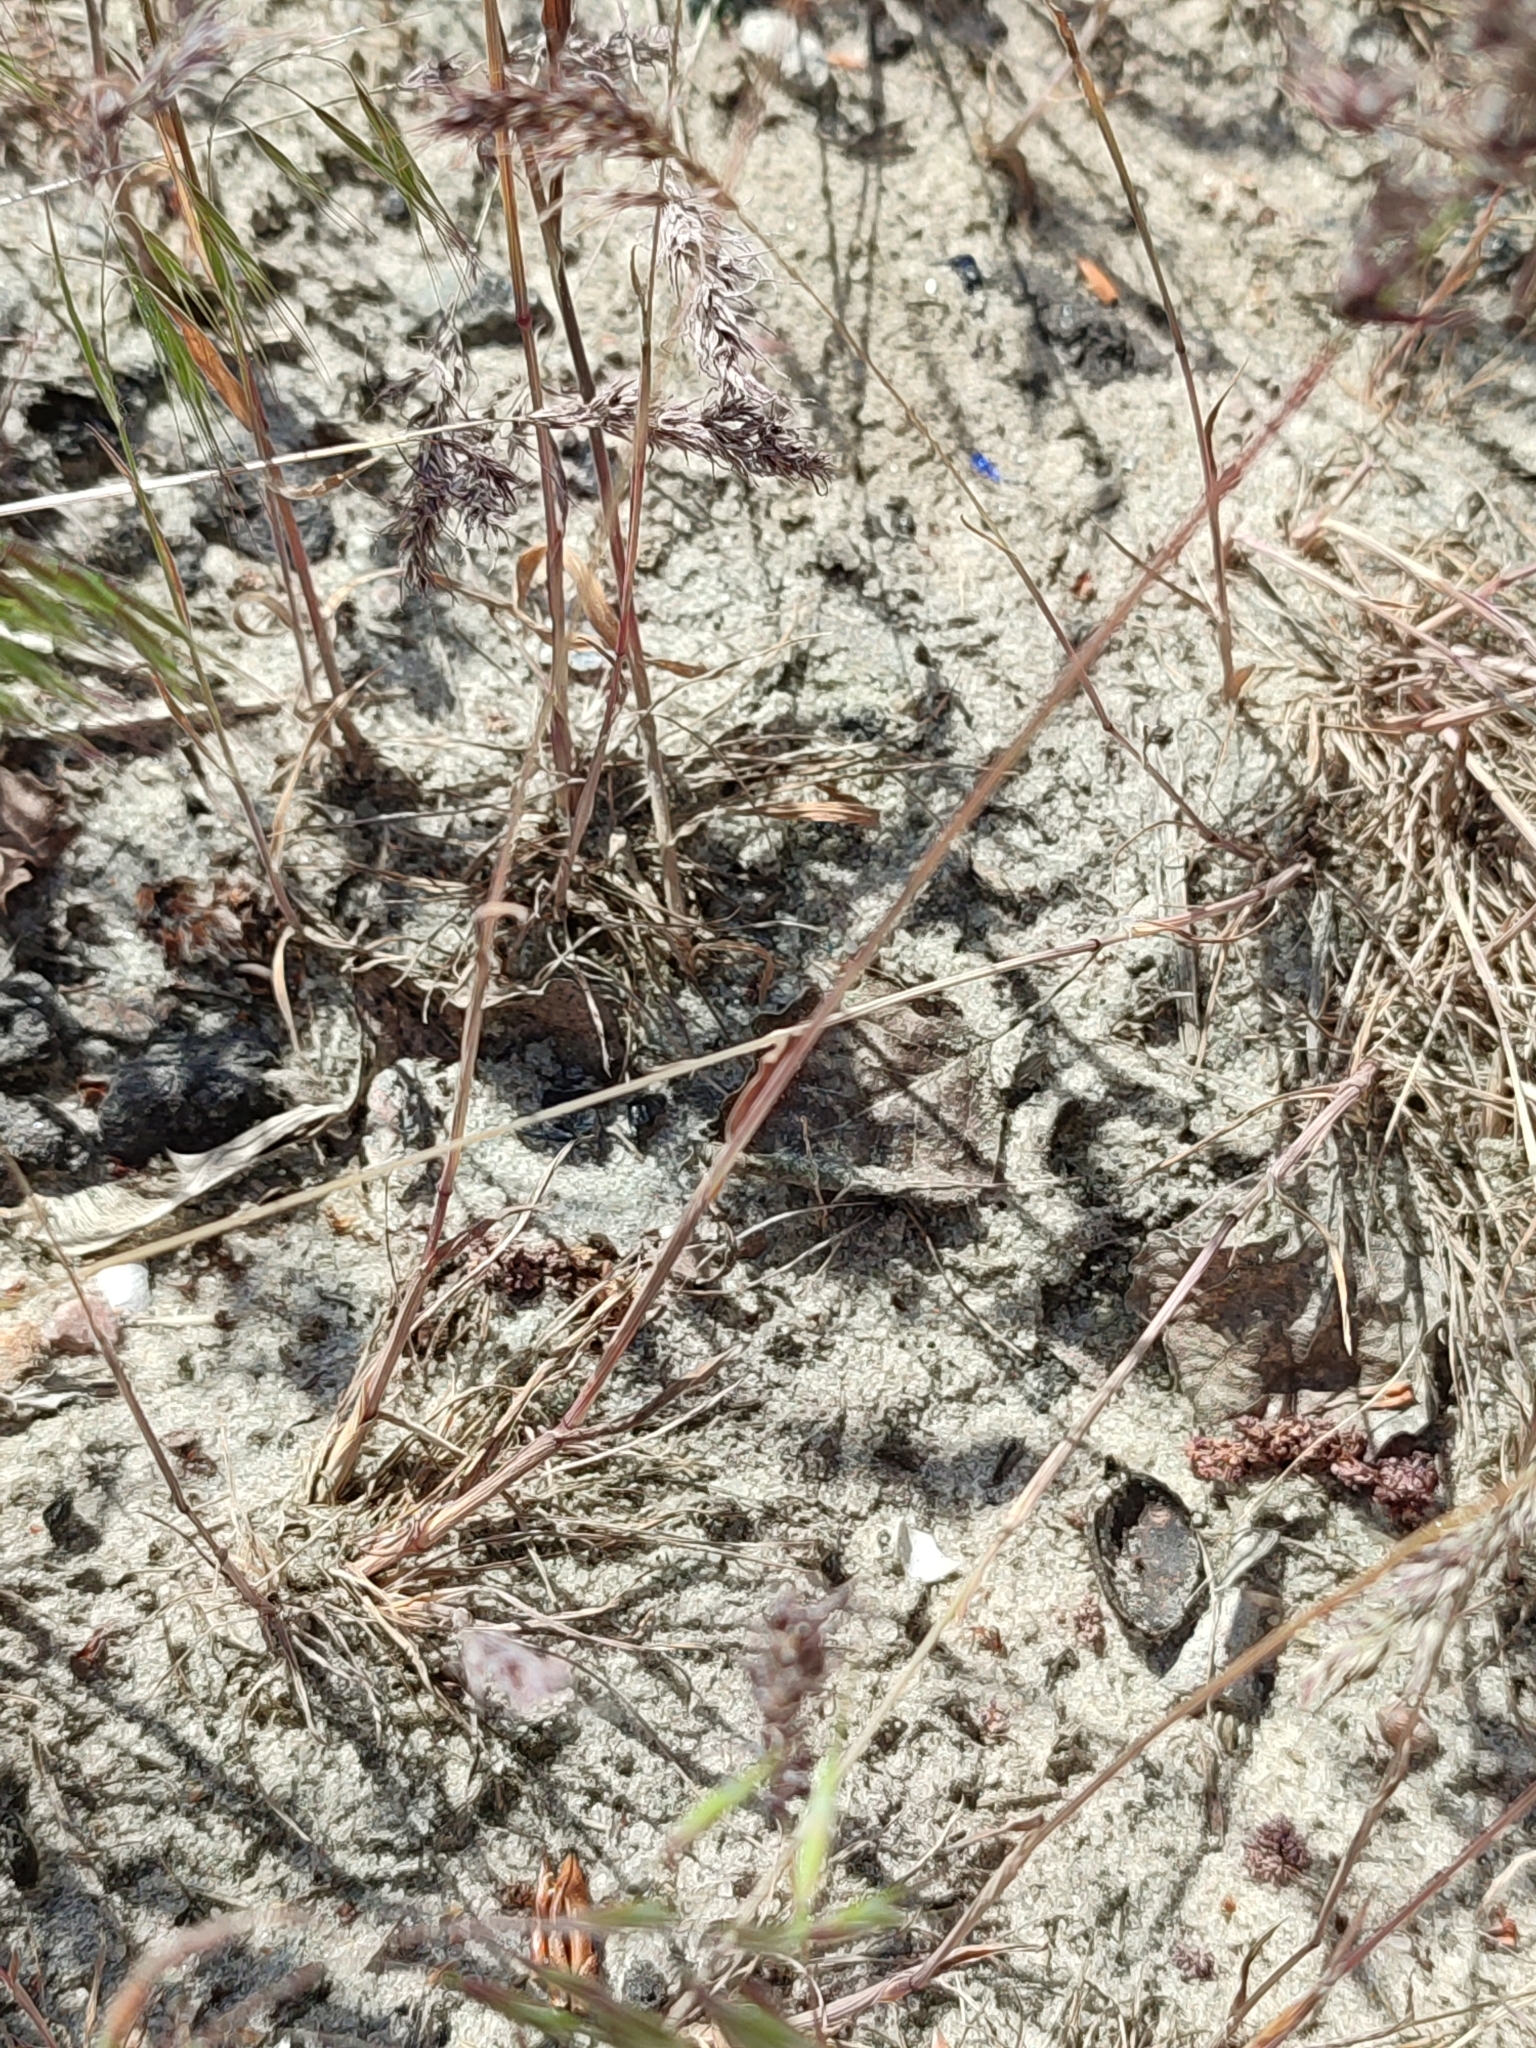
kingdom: Plantae
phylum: Tracheophyta
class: Liliopsida
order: Poales
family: Poaceae
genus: Poa
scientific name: Poa bulbosa
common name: Bulbous bluegrass
